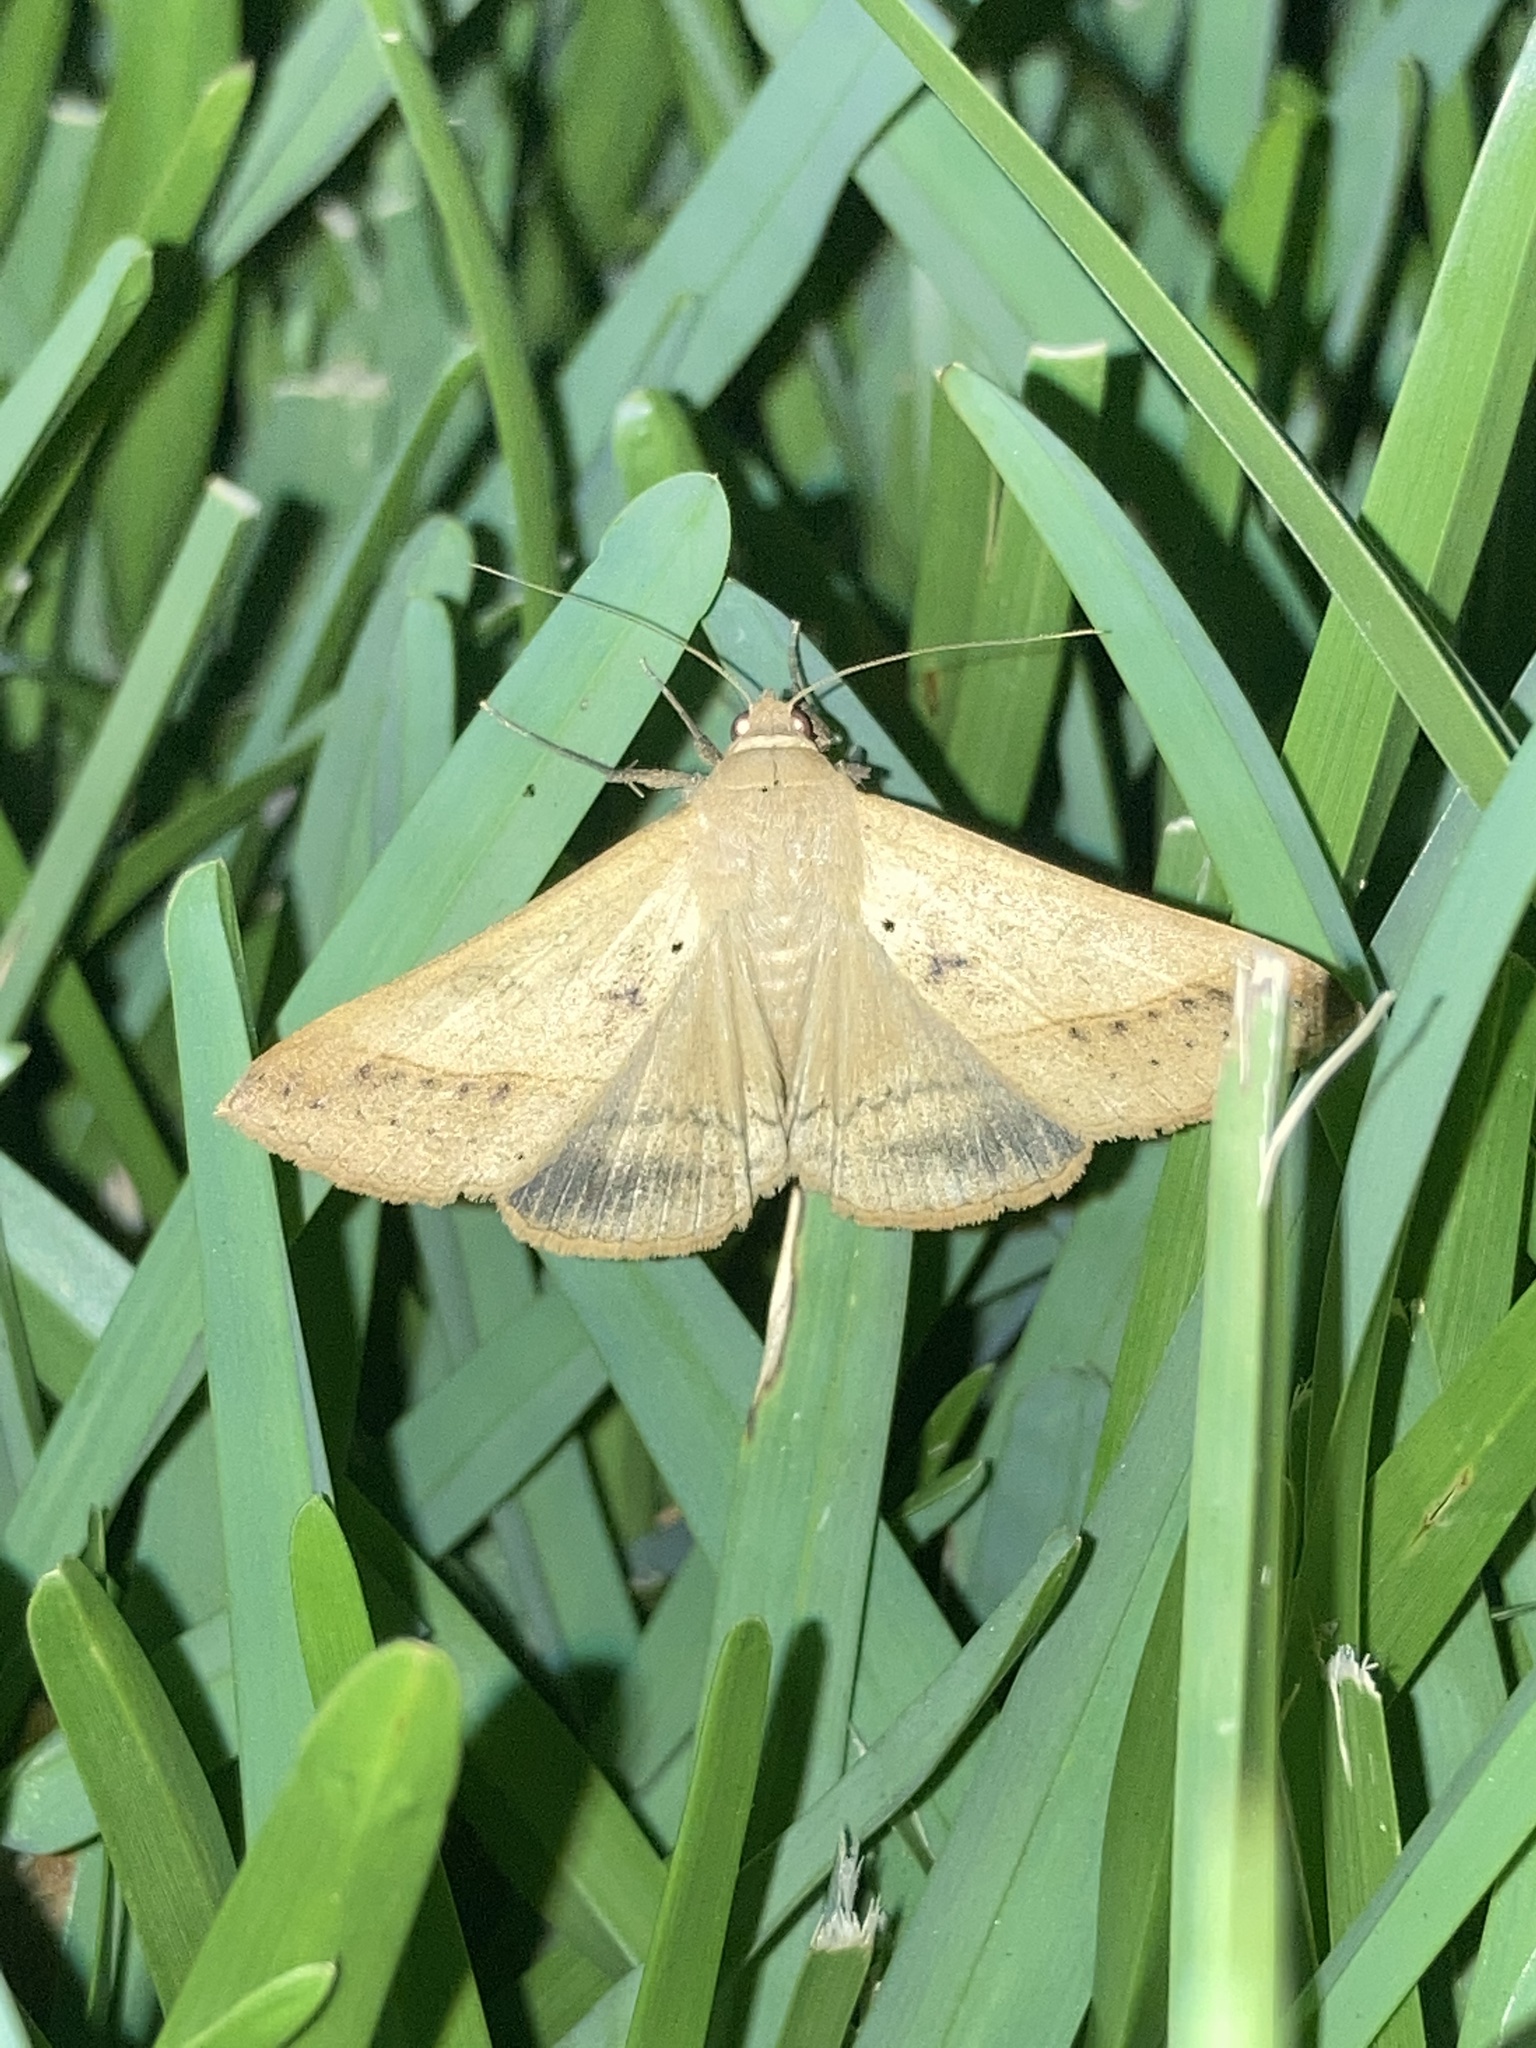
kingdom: Animalia
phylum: Arthropoda
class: Insecta
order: Lepidoptera
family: Erebidae
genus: Mocis
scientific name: Mocis disseverans
